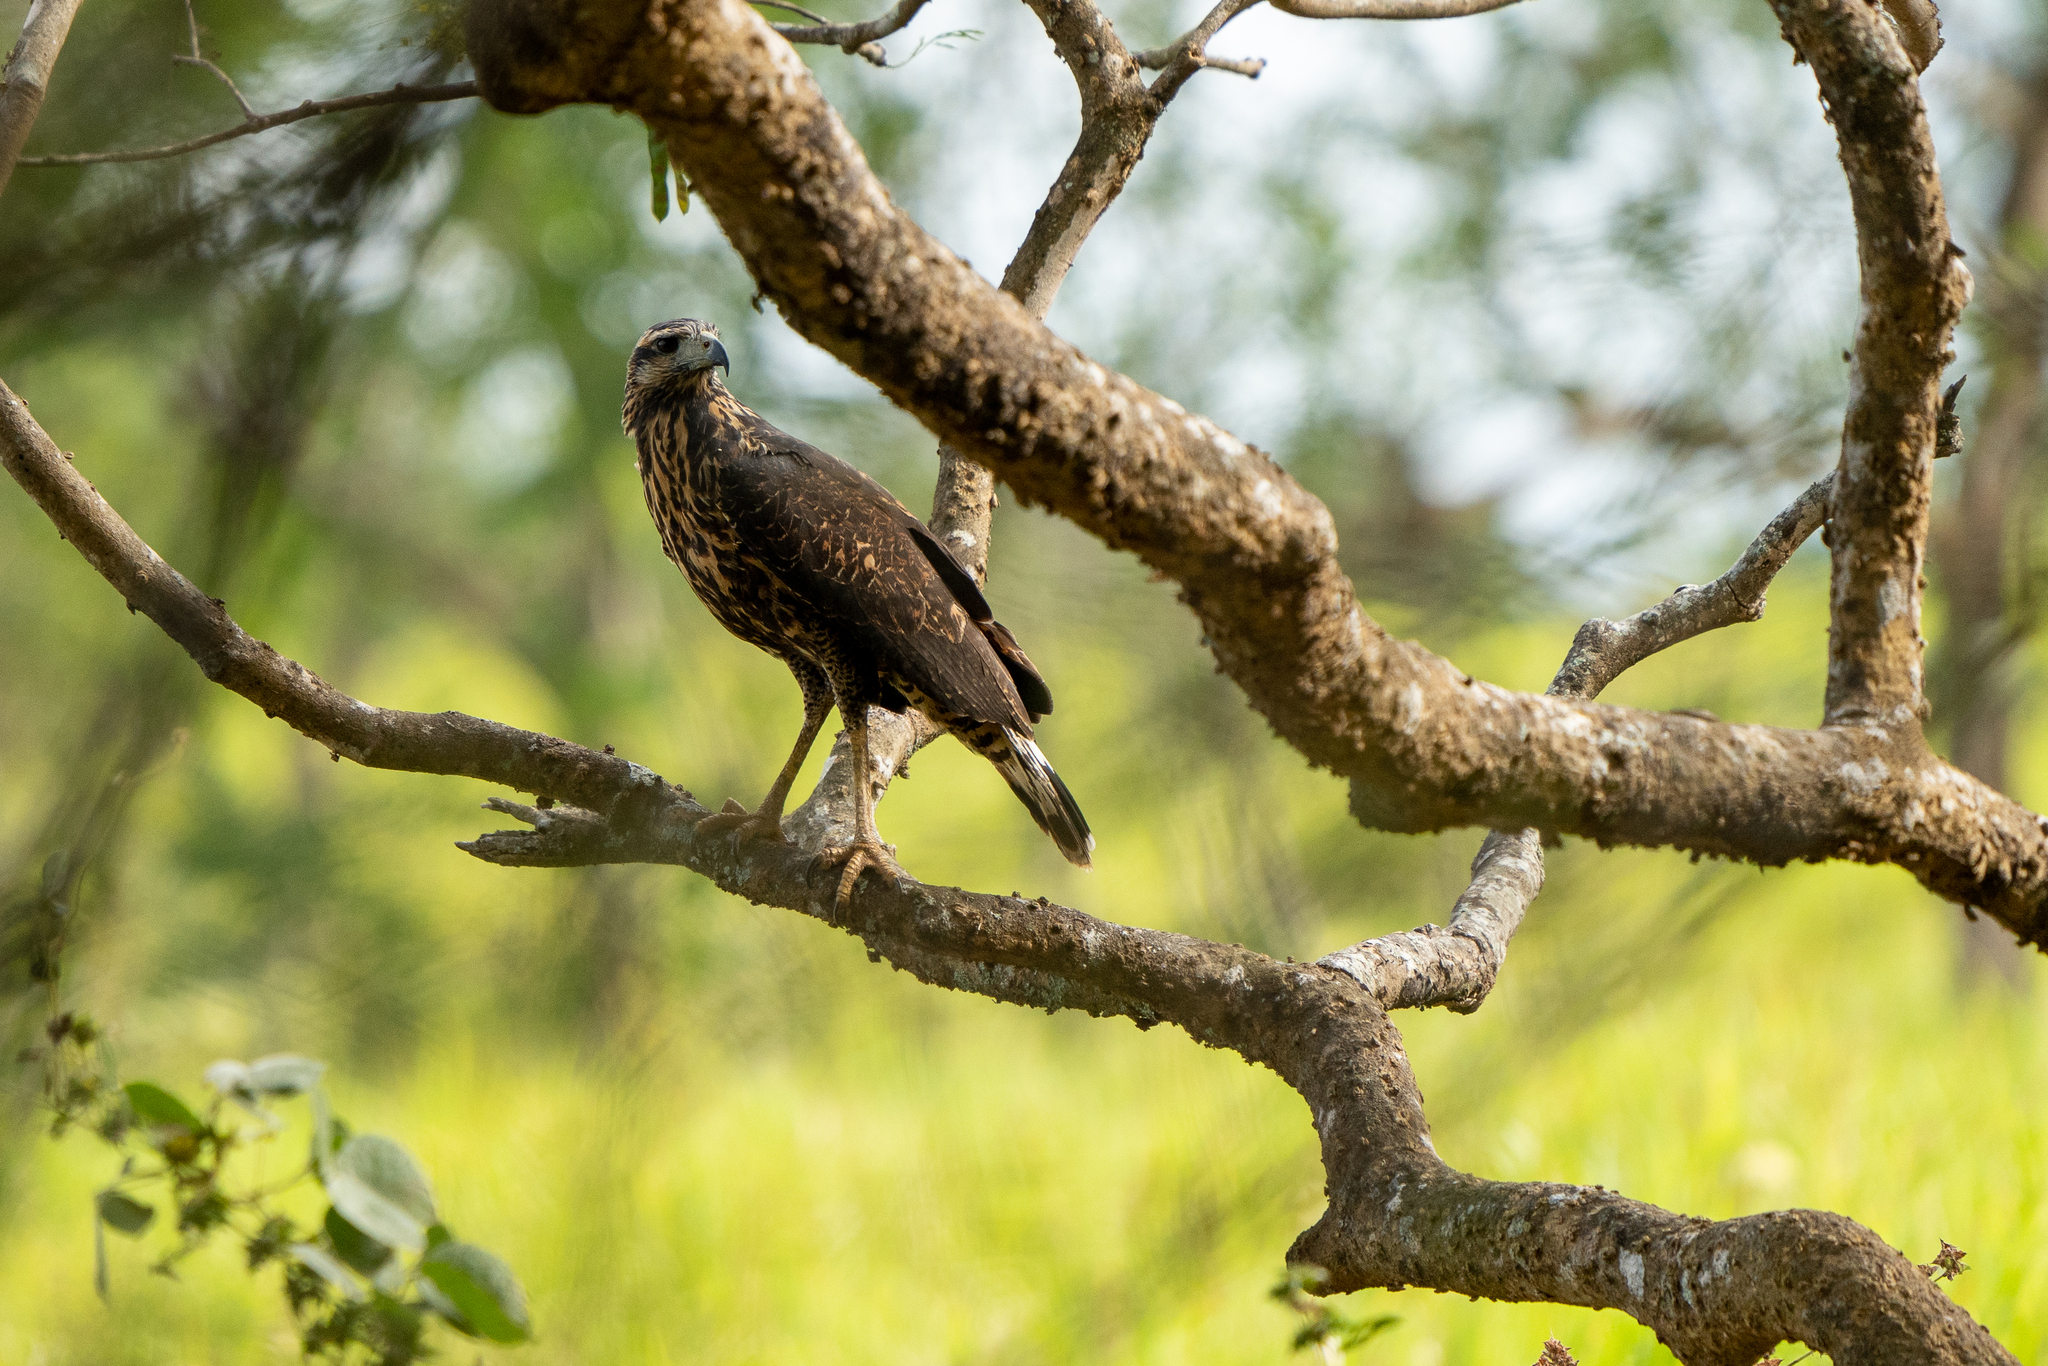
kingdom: Animalia
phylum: Chordata
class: Aves
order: Accipitriformes
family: Accipitridae
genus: Buteogallus
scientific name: Buteogallus urubitinga
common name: Great black hawk
